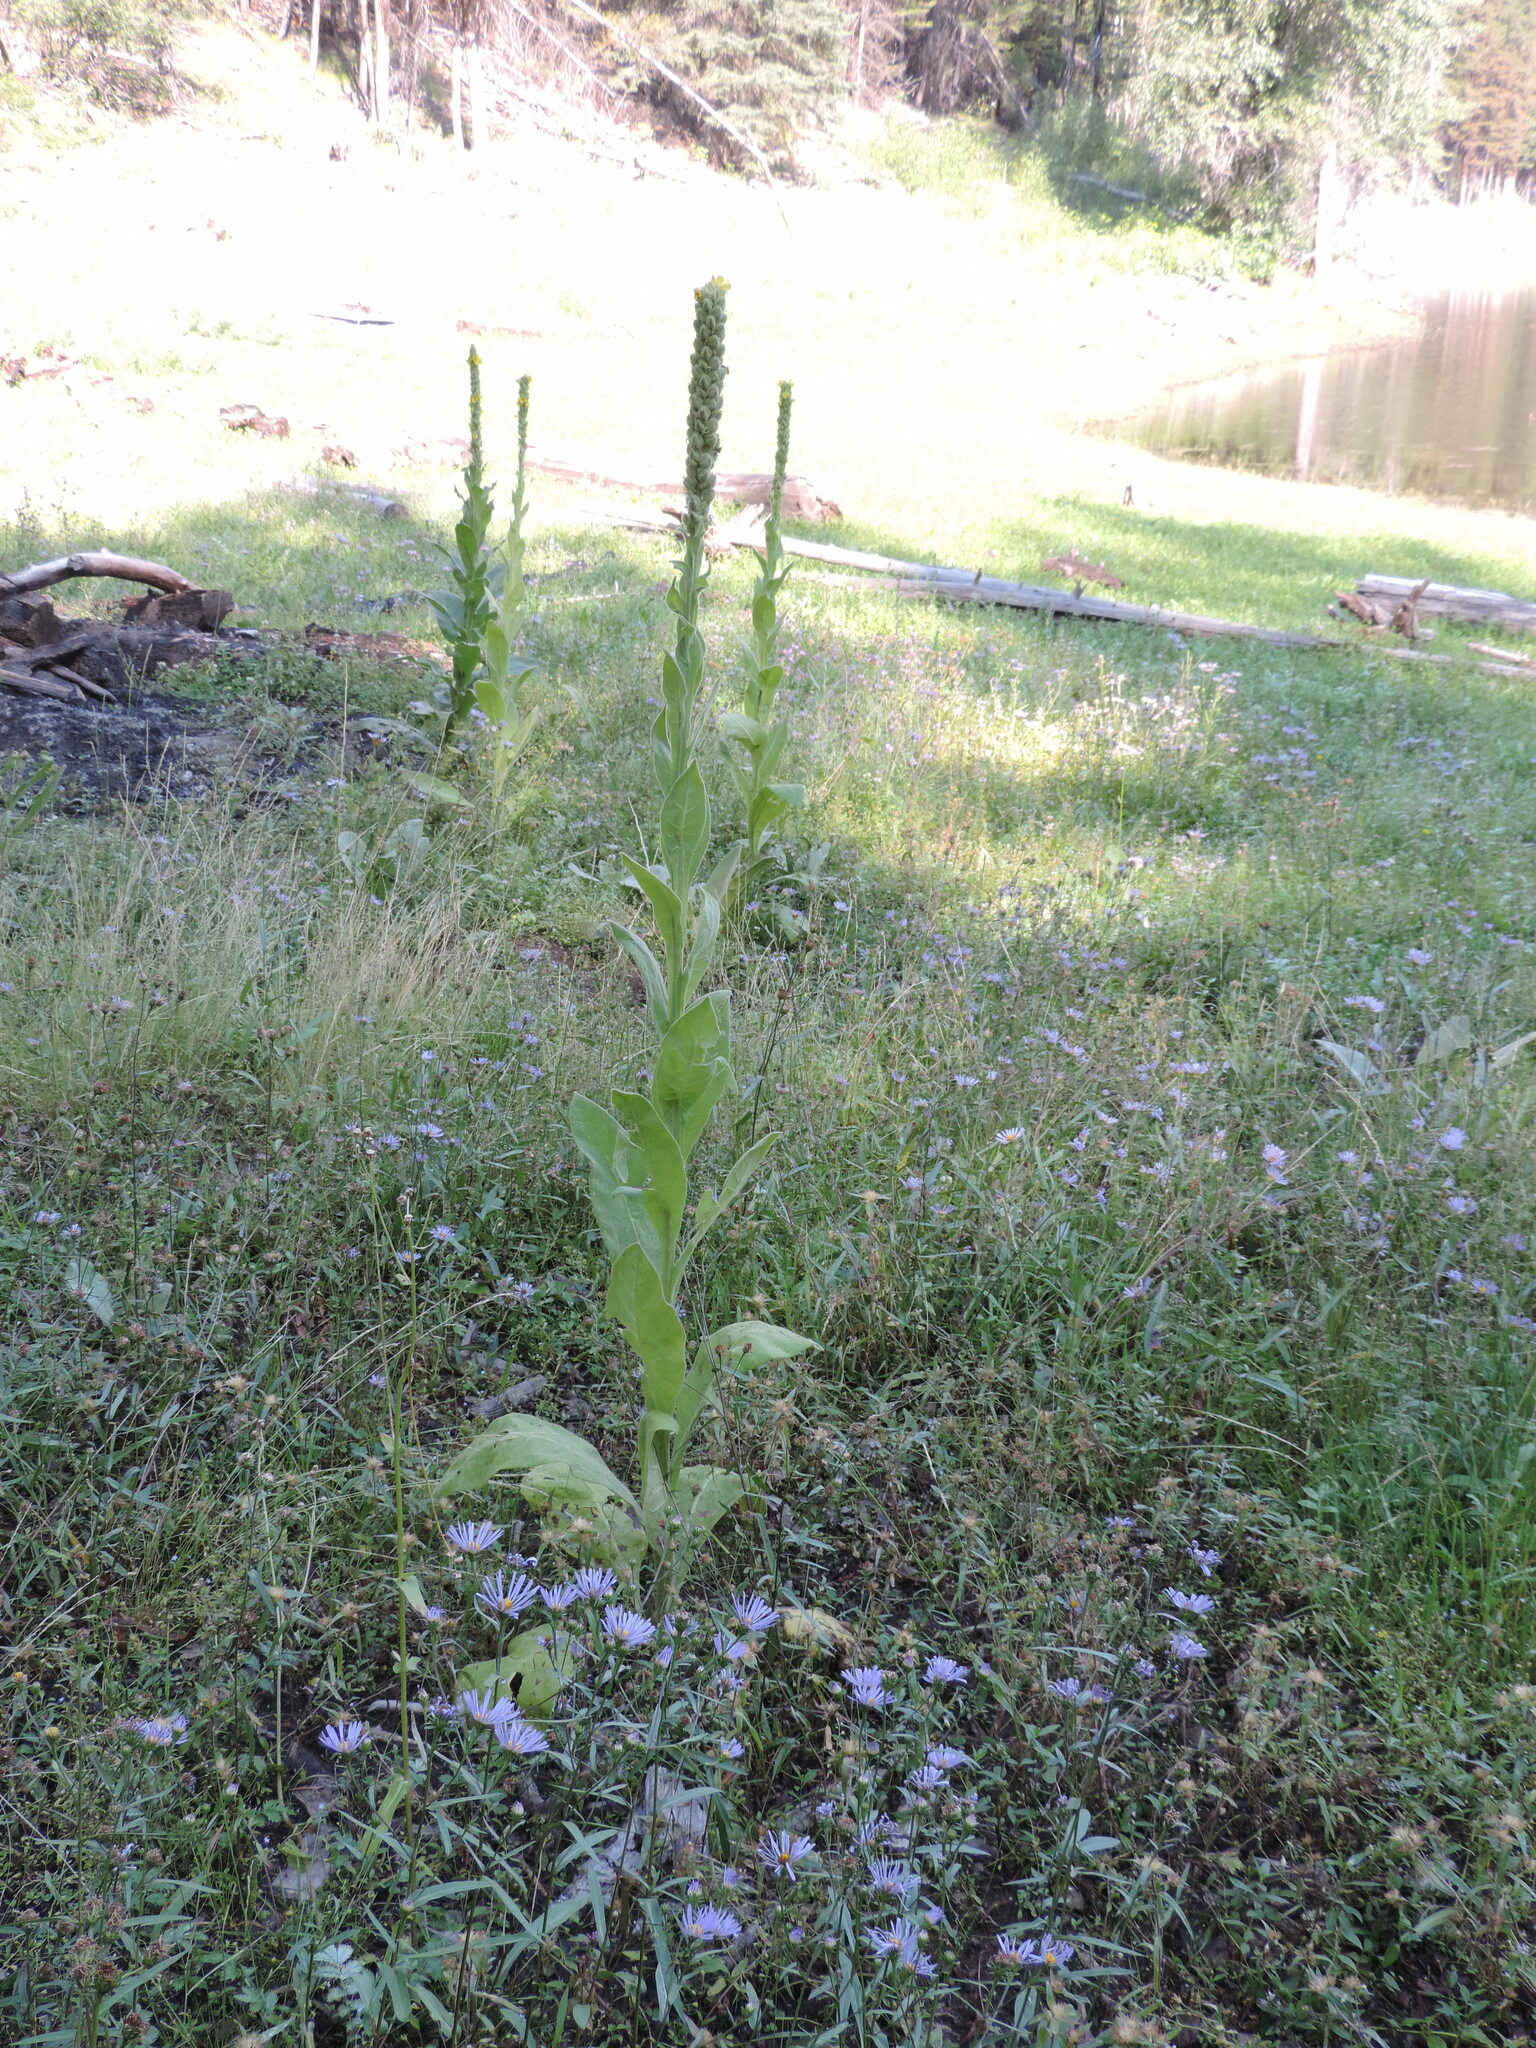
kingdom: Plantae
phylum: Tracheophyta
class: Magnoliopsida
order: Lamiales
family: Scrophulariaceae
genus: Verbascum
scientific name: Verbascum thapsus
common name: Common mullein
